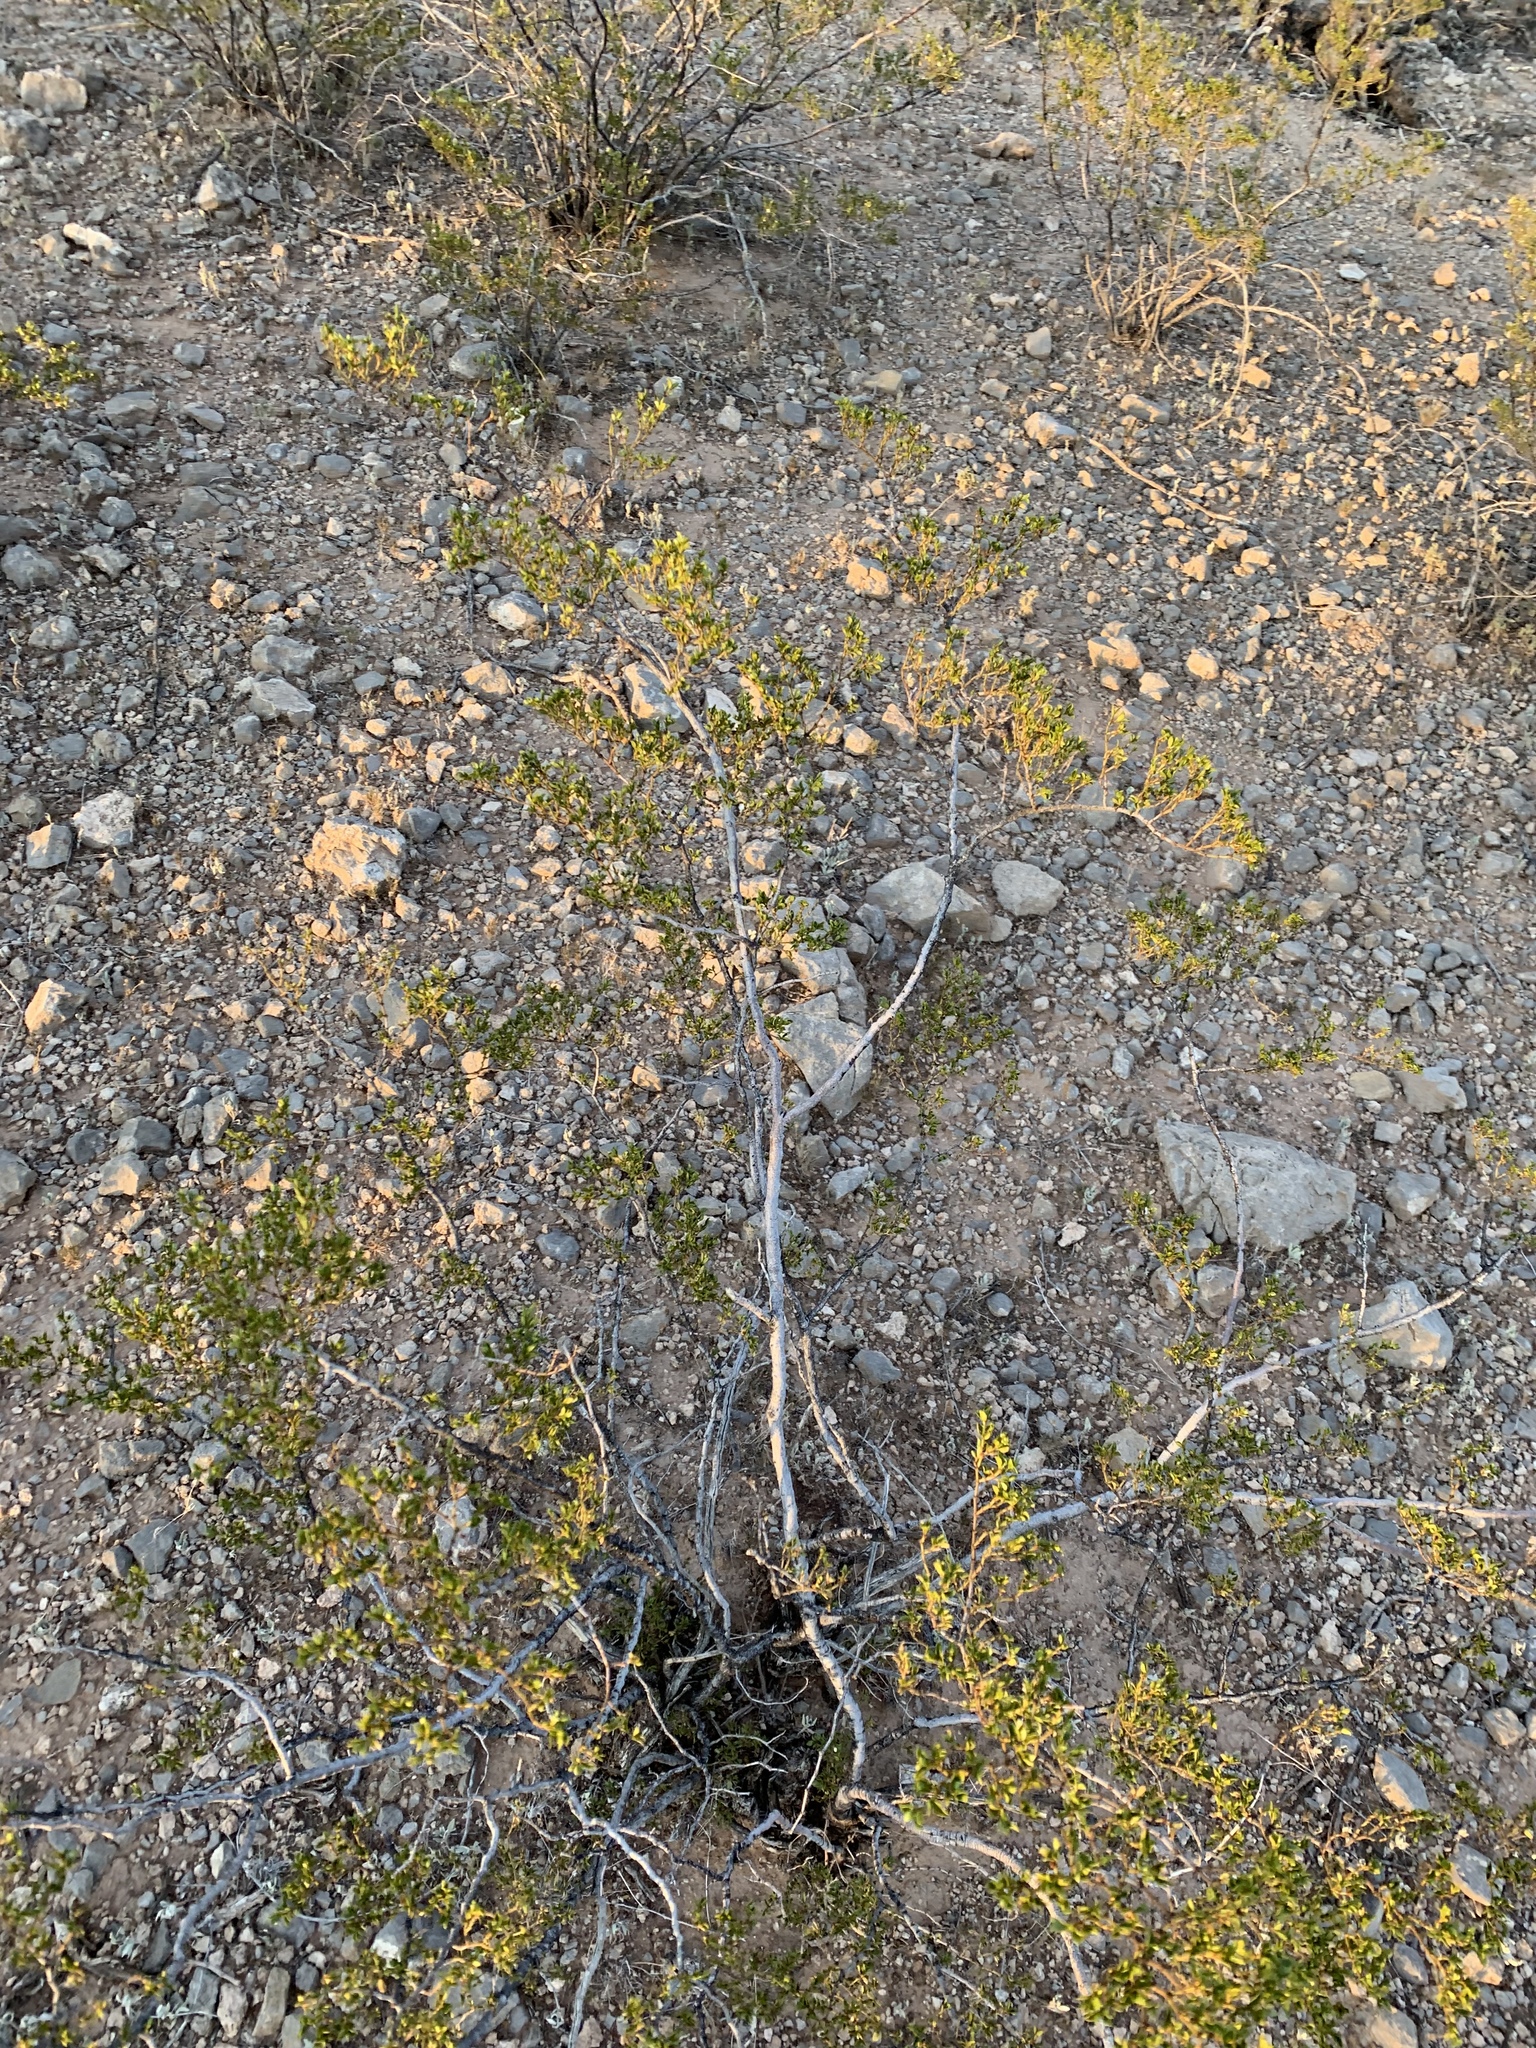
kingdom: Plantae
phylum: Tracheophyta
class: Magnoliopsida
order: Zygophyllales
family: Zygophyllaceae
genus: Larrea
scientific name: Larrea tridentata
